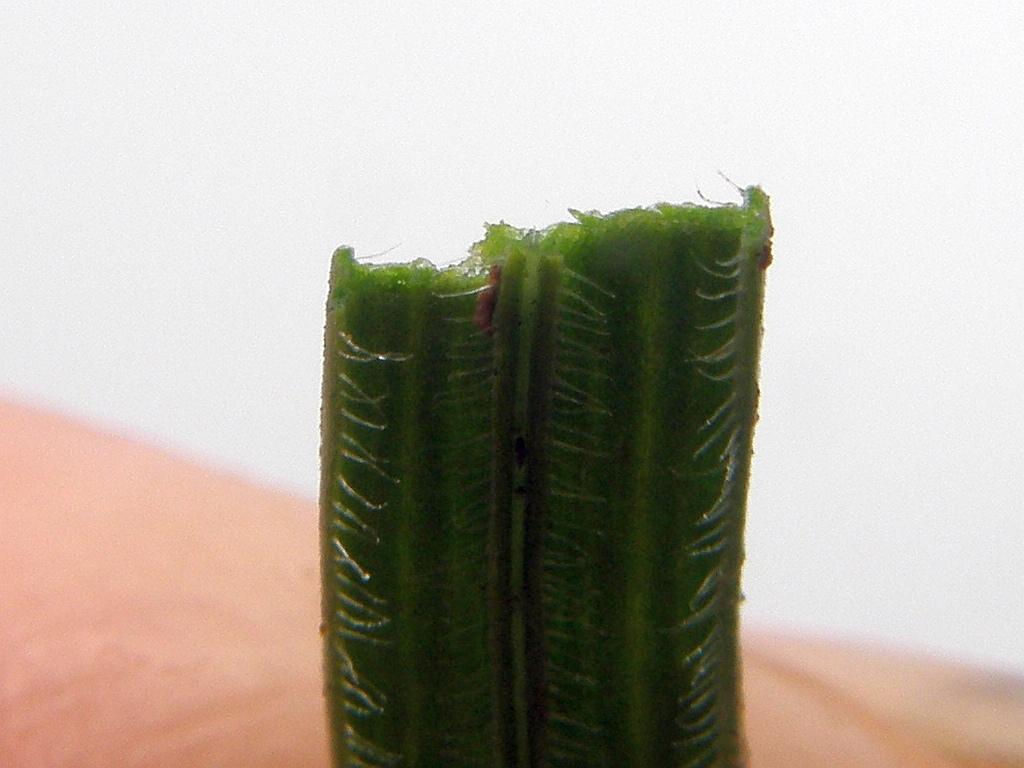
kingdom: Plantae
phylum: Tracheophyta
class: Liliopsida
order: Asparagales
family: Iridaceae
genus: Geissorhiza
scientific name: Geissorhiza inflexa
